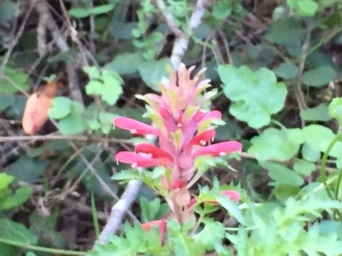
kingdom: Plantae
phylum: Tracheophyta
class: Magnoliopsida
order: Lamiales
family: Orobanchaceae
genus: Pedicularis
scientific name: Pedicularis densiflora
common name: Indian warrior
